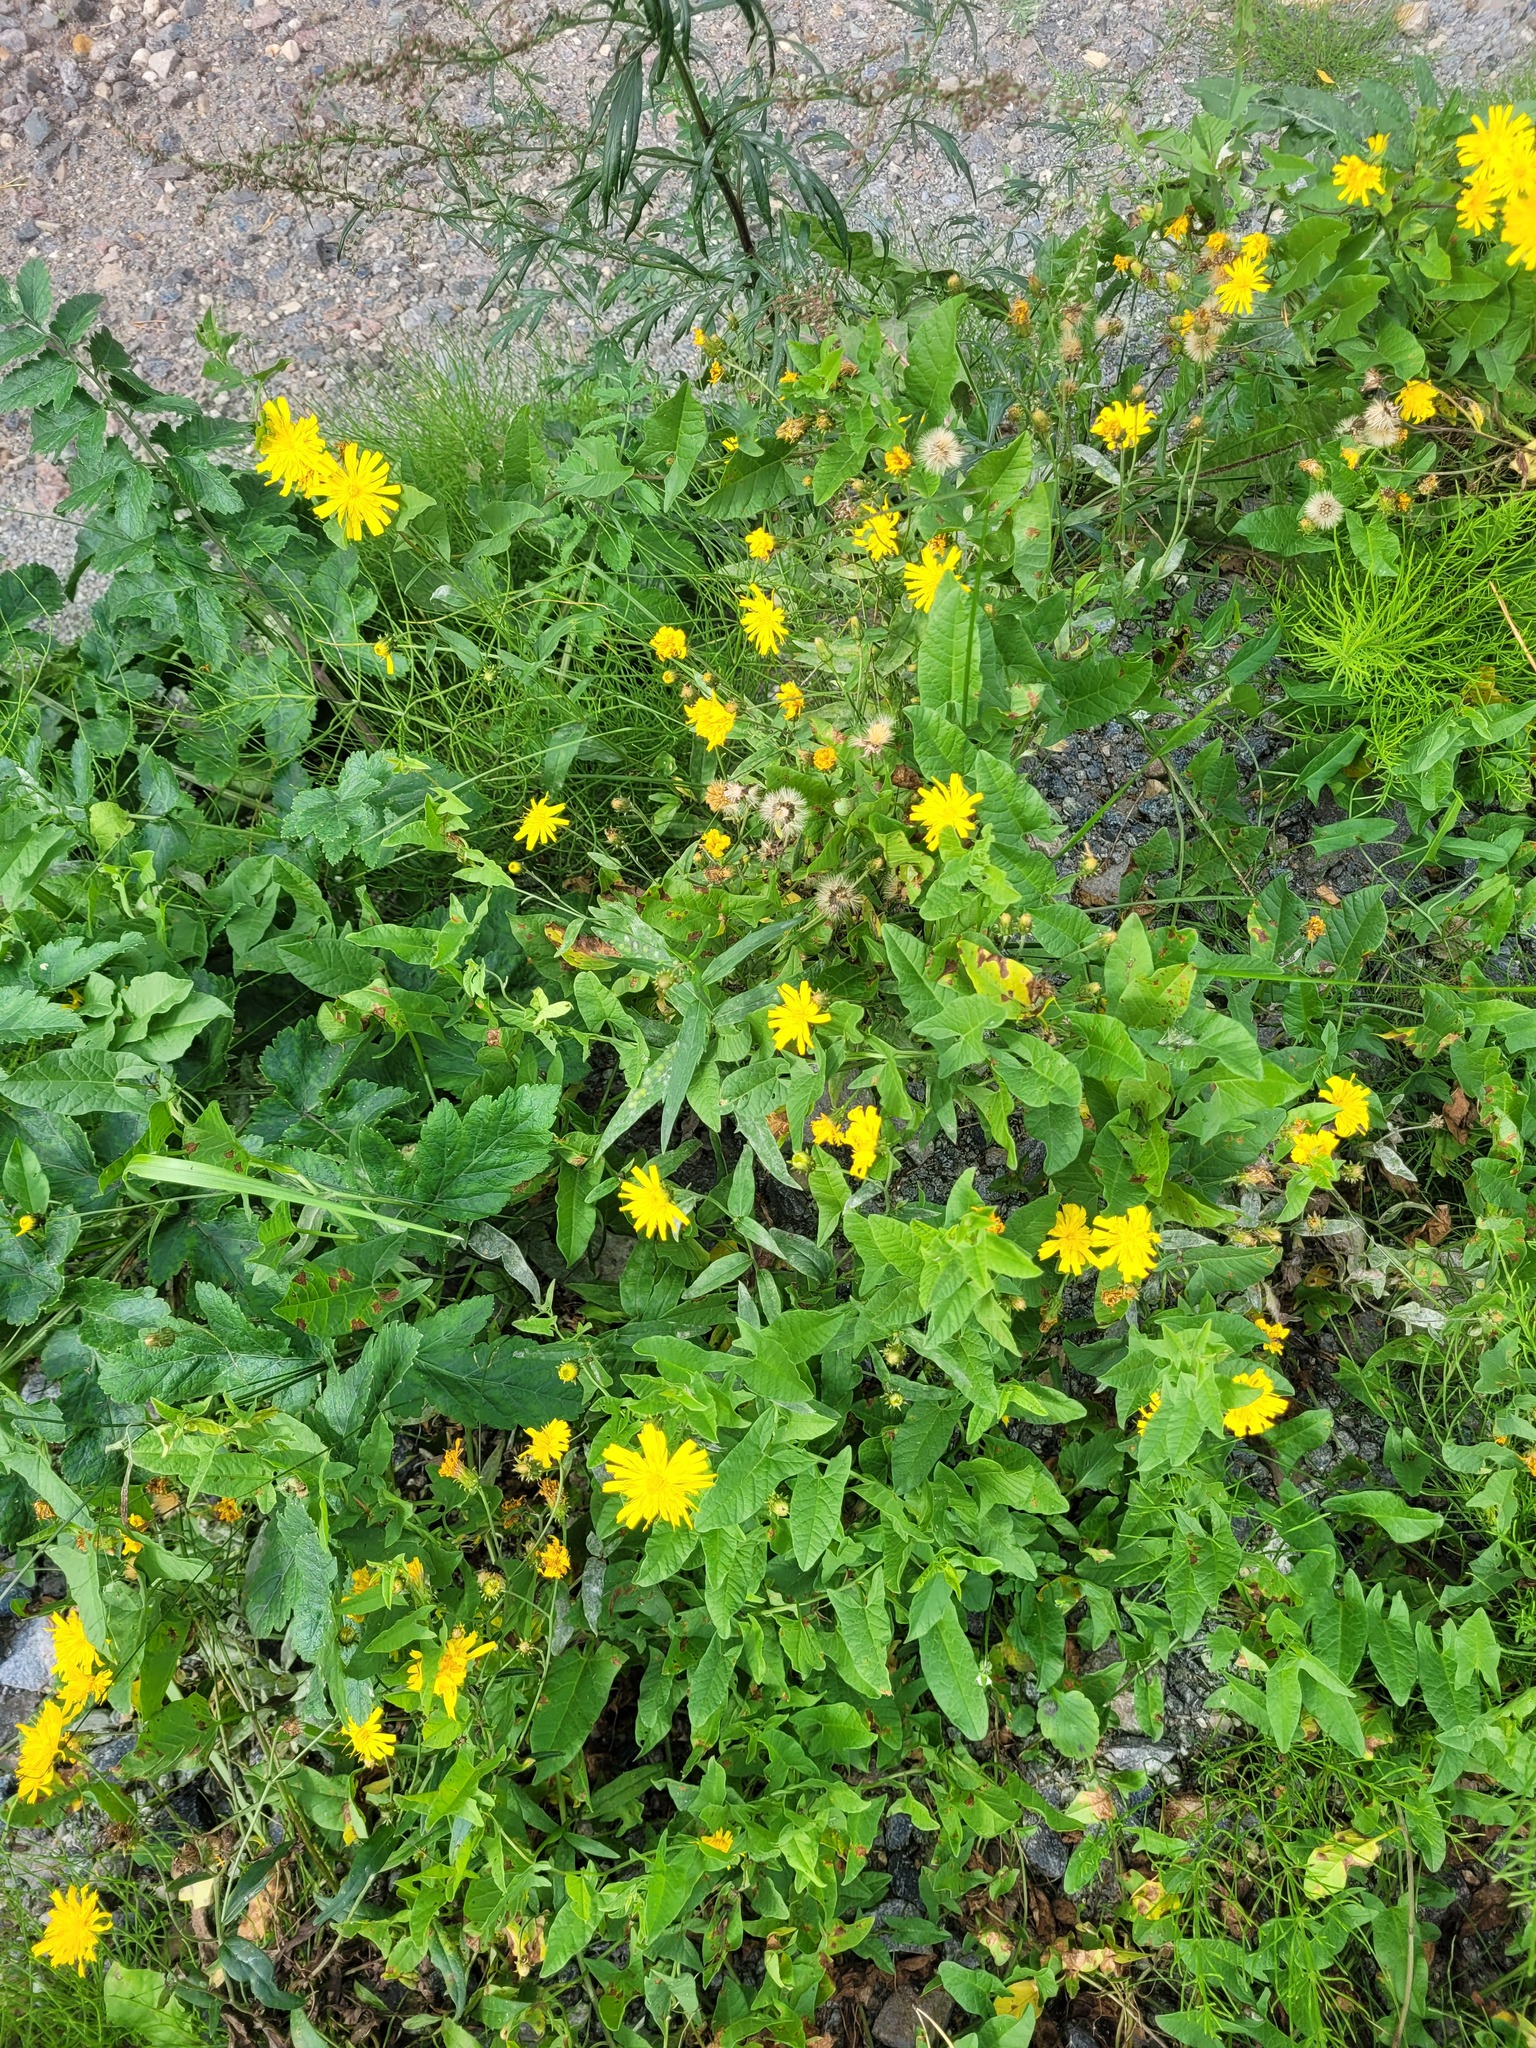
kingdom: Plantae
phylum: Tracheophyta
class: Magnoliopsida
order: Asterales
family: Asteraceae
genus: Hieracium
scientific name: Hieracium umbellatum
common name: Northern hawkweed
